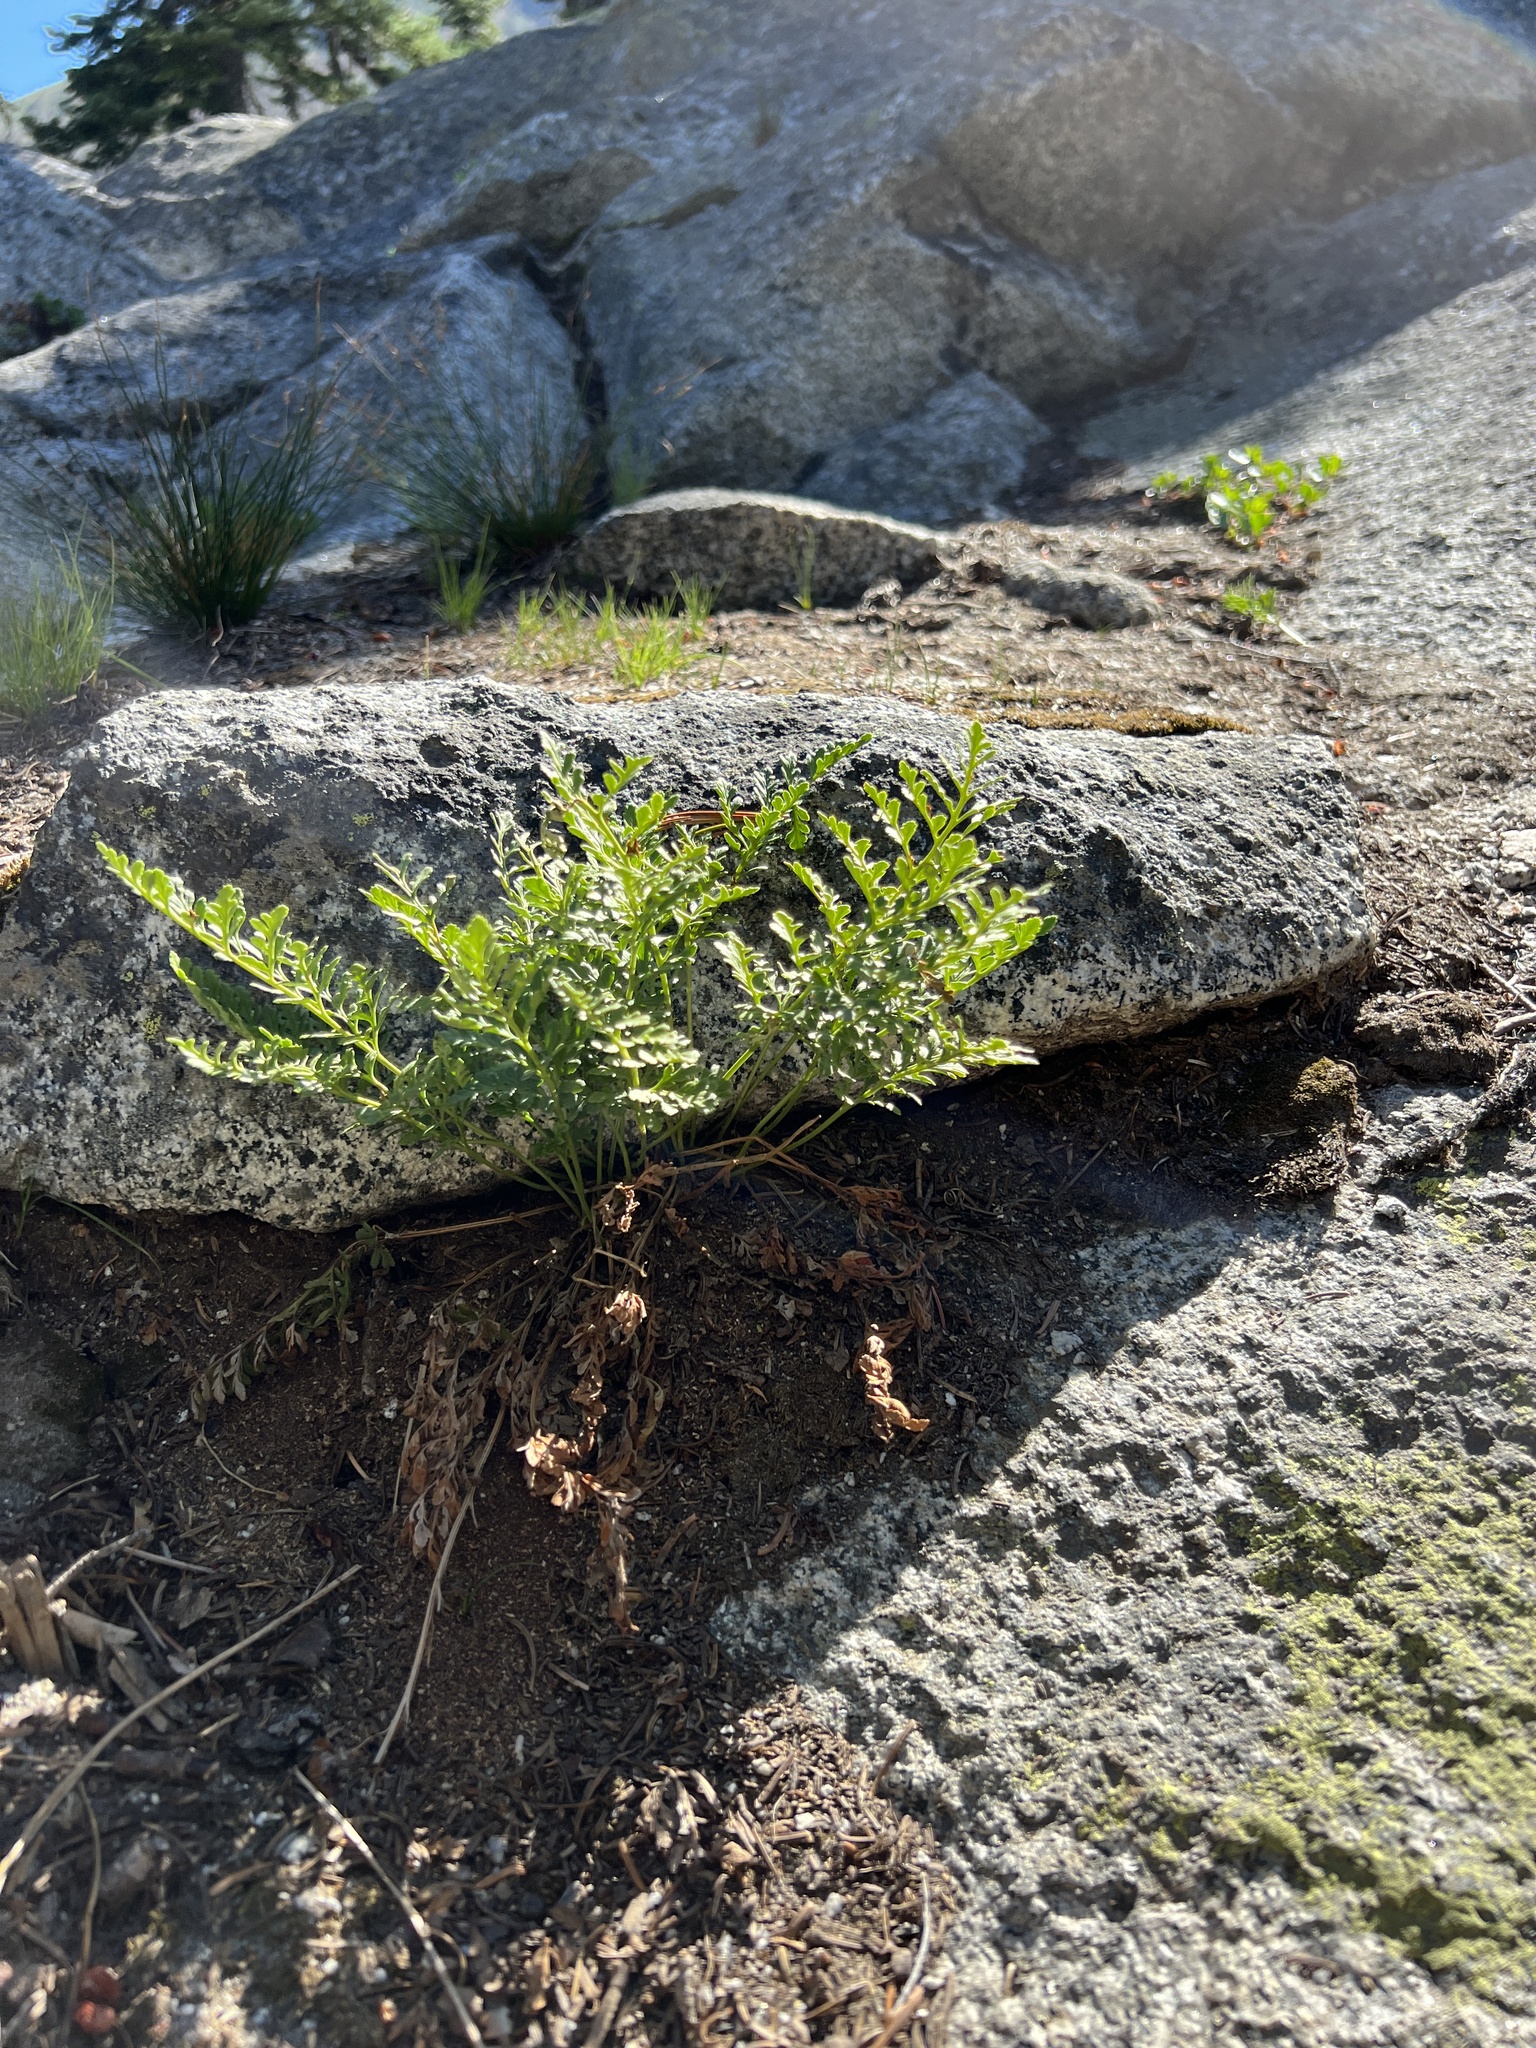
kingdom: Plantae
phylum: Tracheophyta
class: Polypodiopsida
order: Polypodiales
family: Pteridaceae
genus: Cryptogramma
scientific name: Cryptogramma acrostichoides
